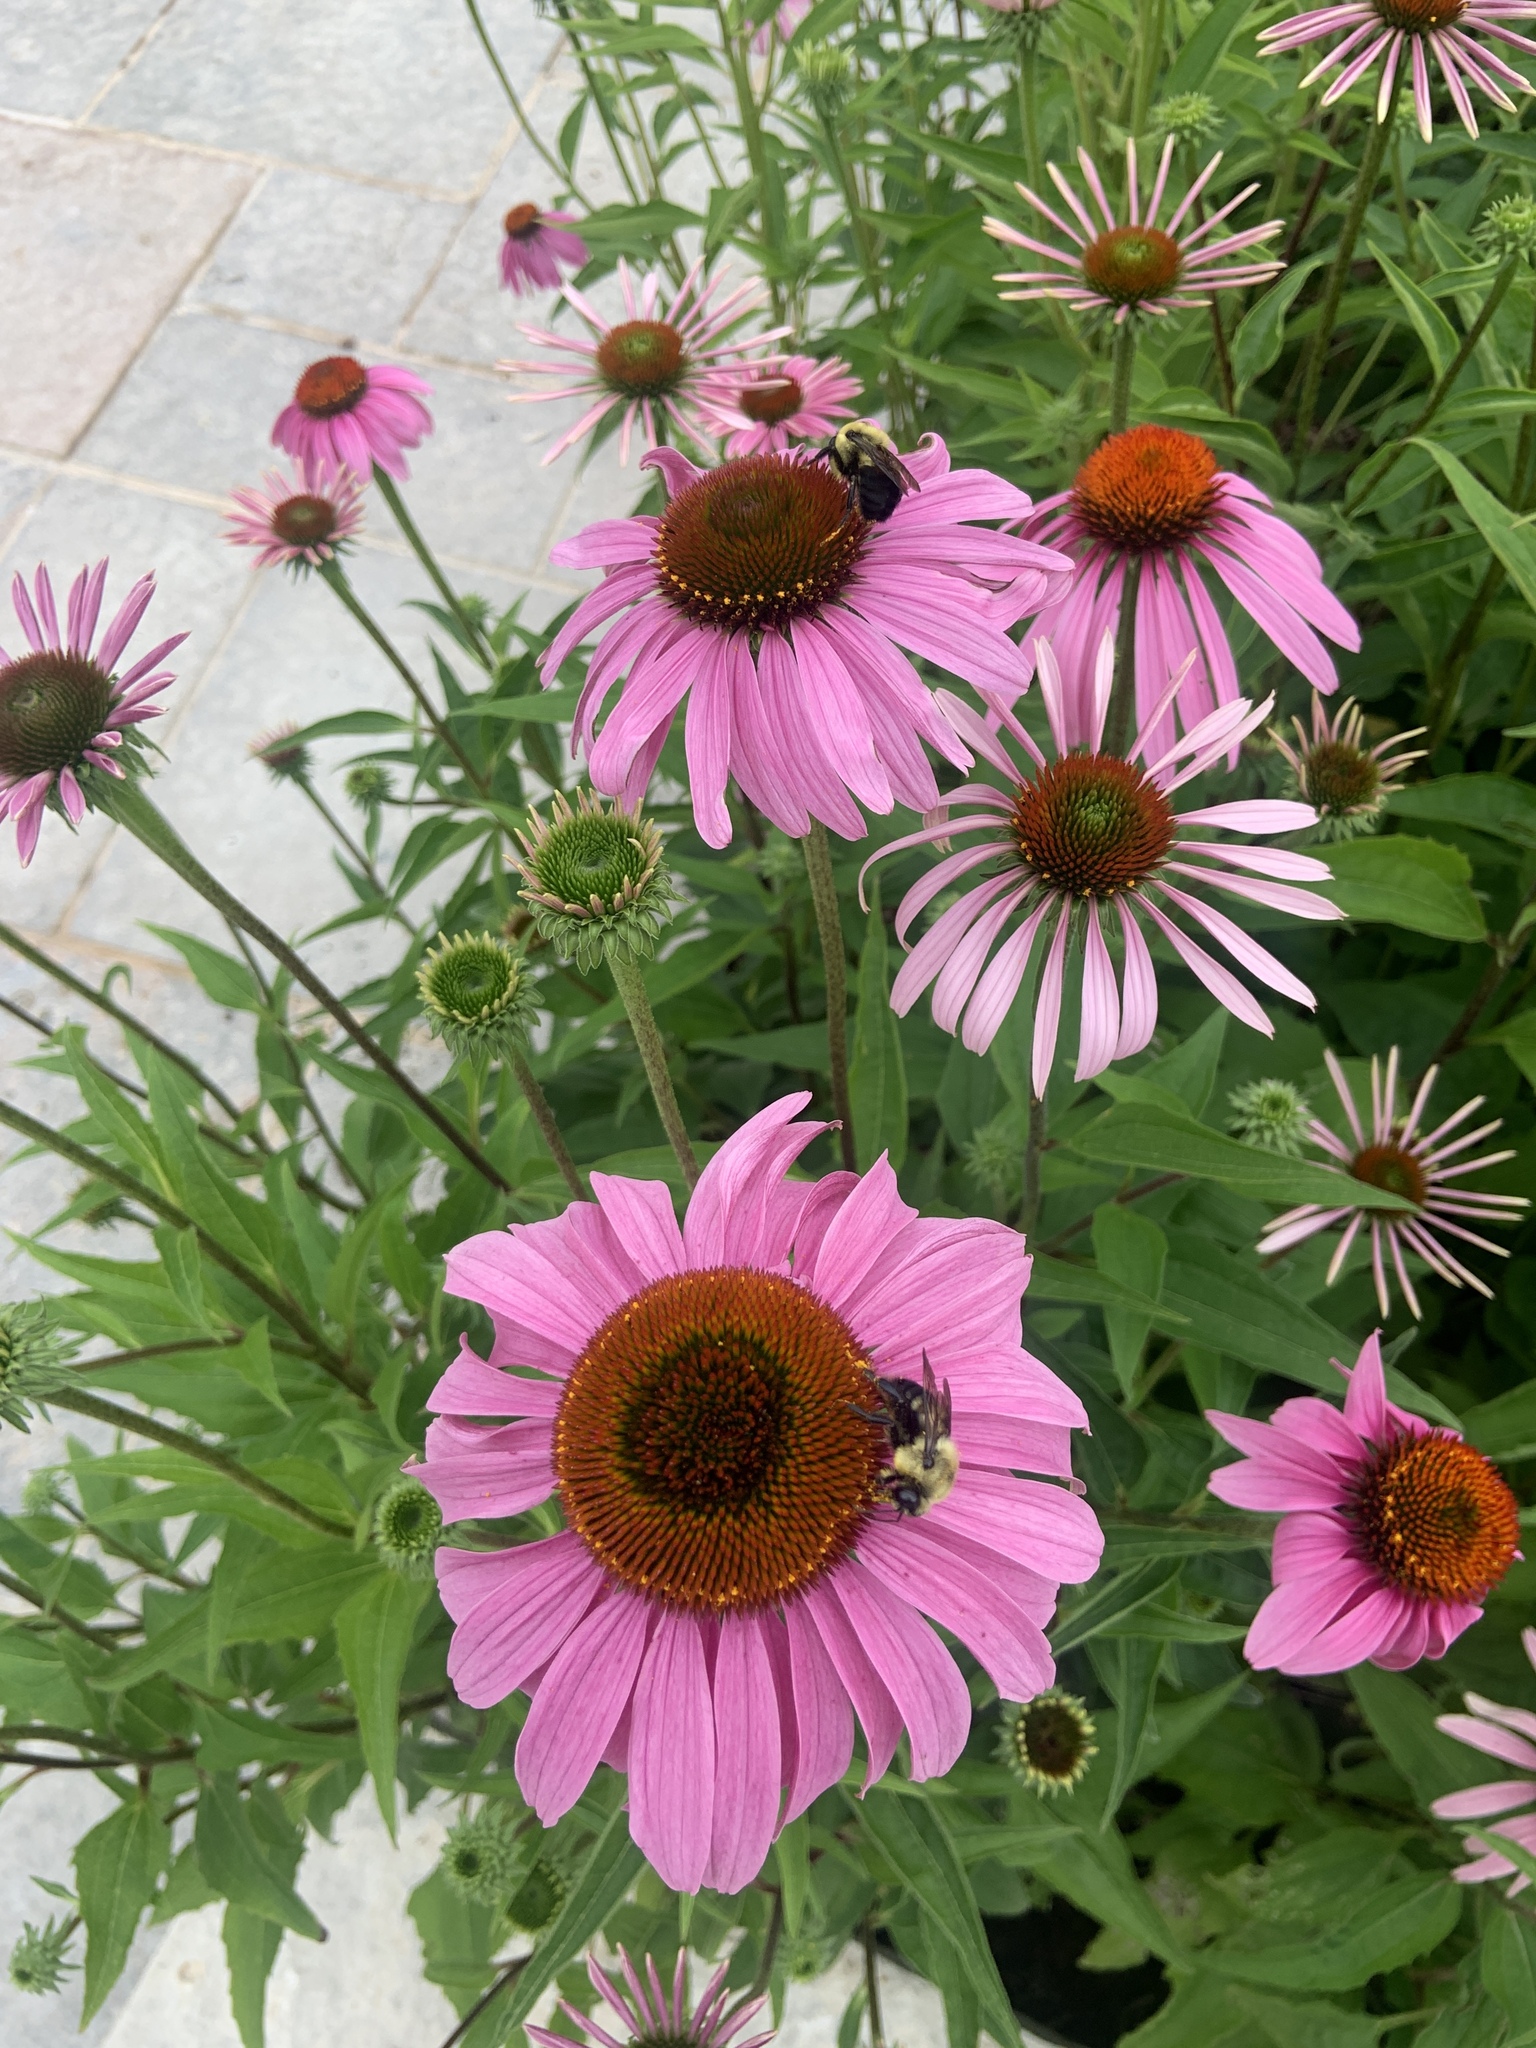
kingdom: Animalia
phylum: Arthropoda
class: Insecta
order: Hymenoptera
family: Apidae
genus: Bombus
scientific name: Bombus griseocollis
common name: Brown-belted bumble bee
